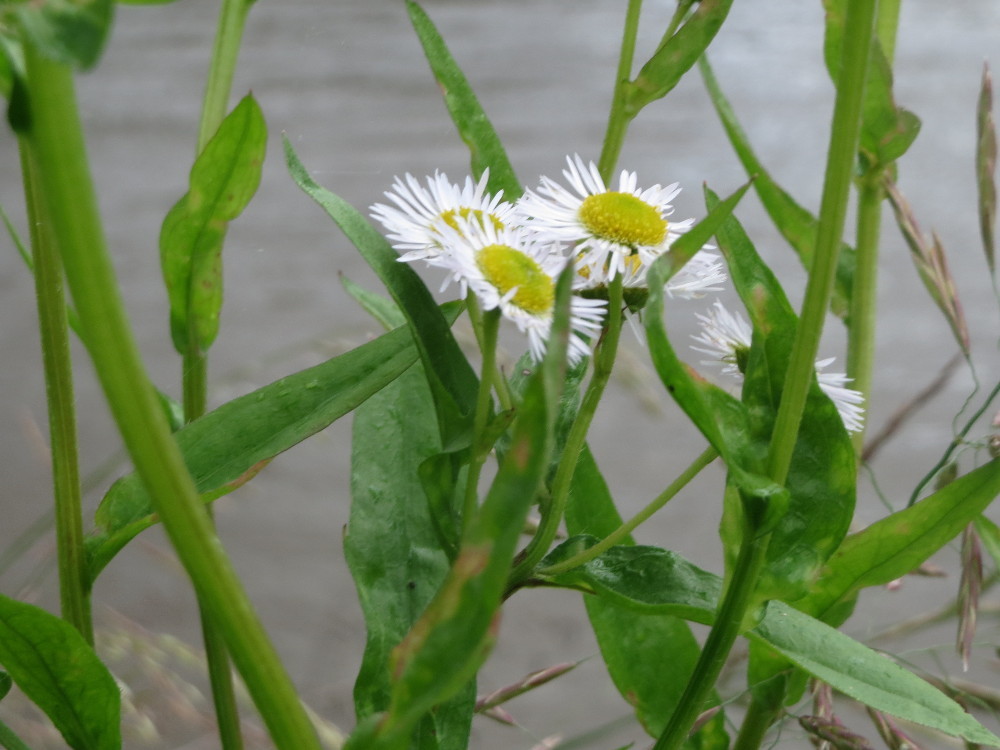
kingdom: Plantae
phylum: Tracheophyta
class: Magnoliopsida
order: Asterales
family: Asteraceae
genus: Erigeron
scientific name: Erigeron annuus
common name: Tall fleabane
